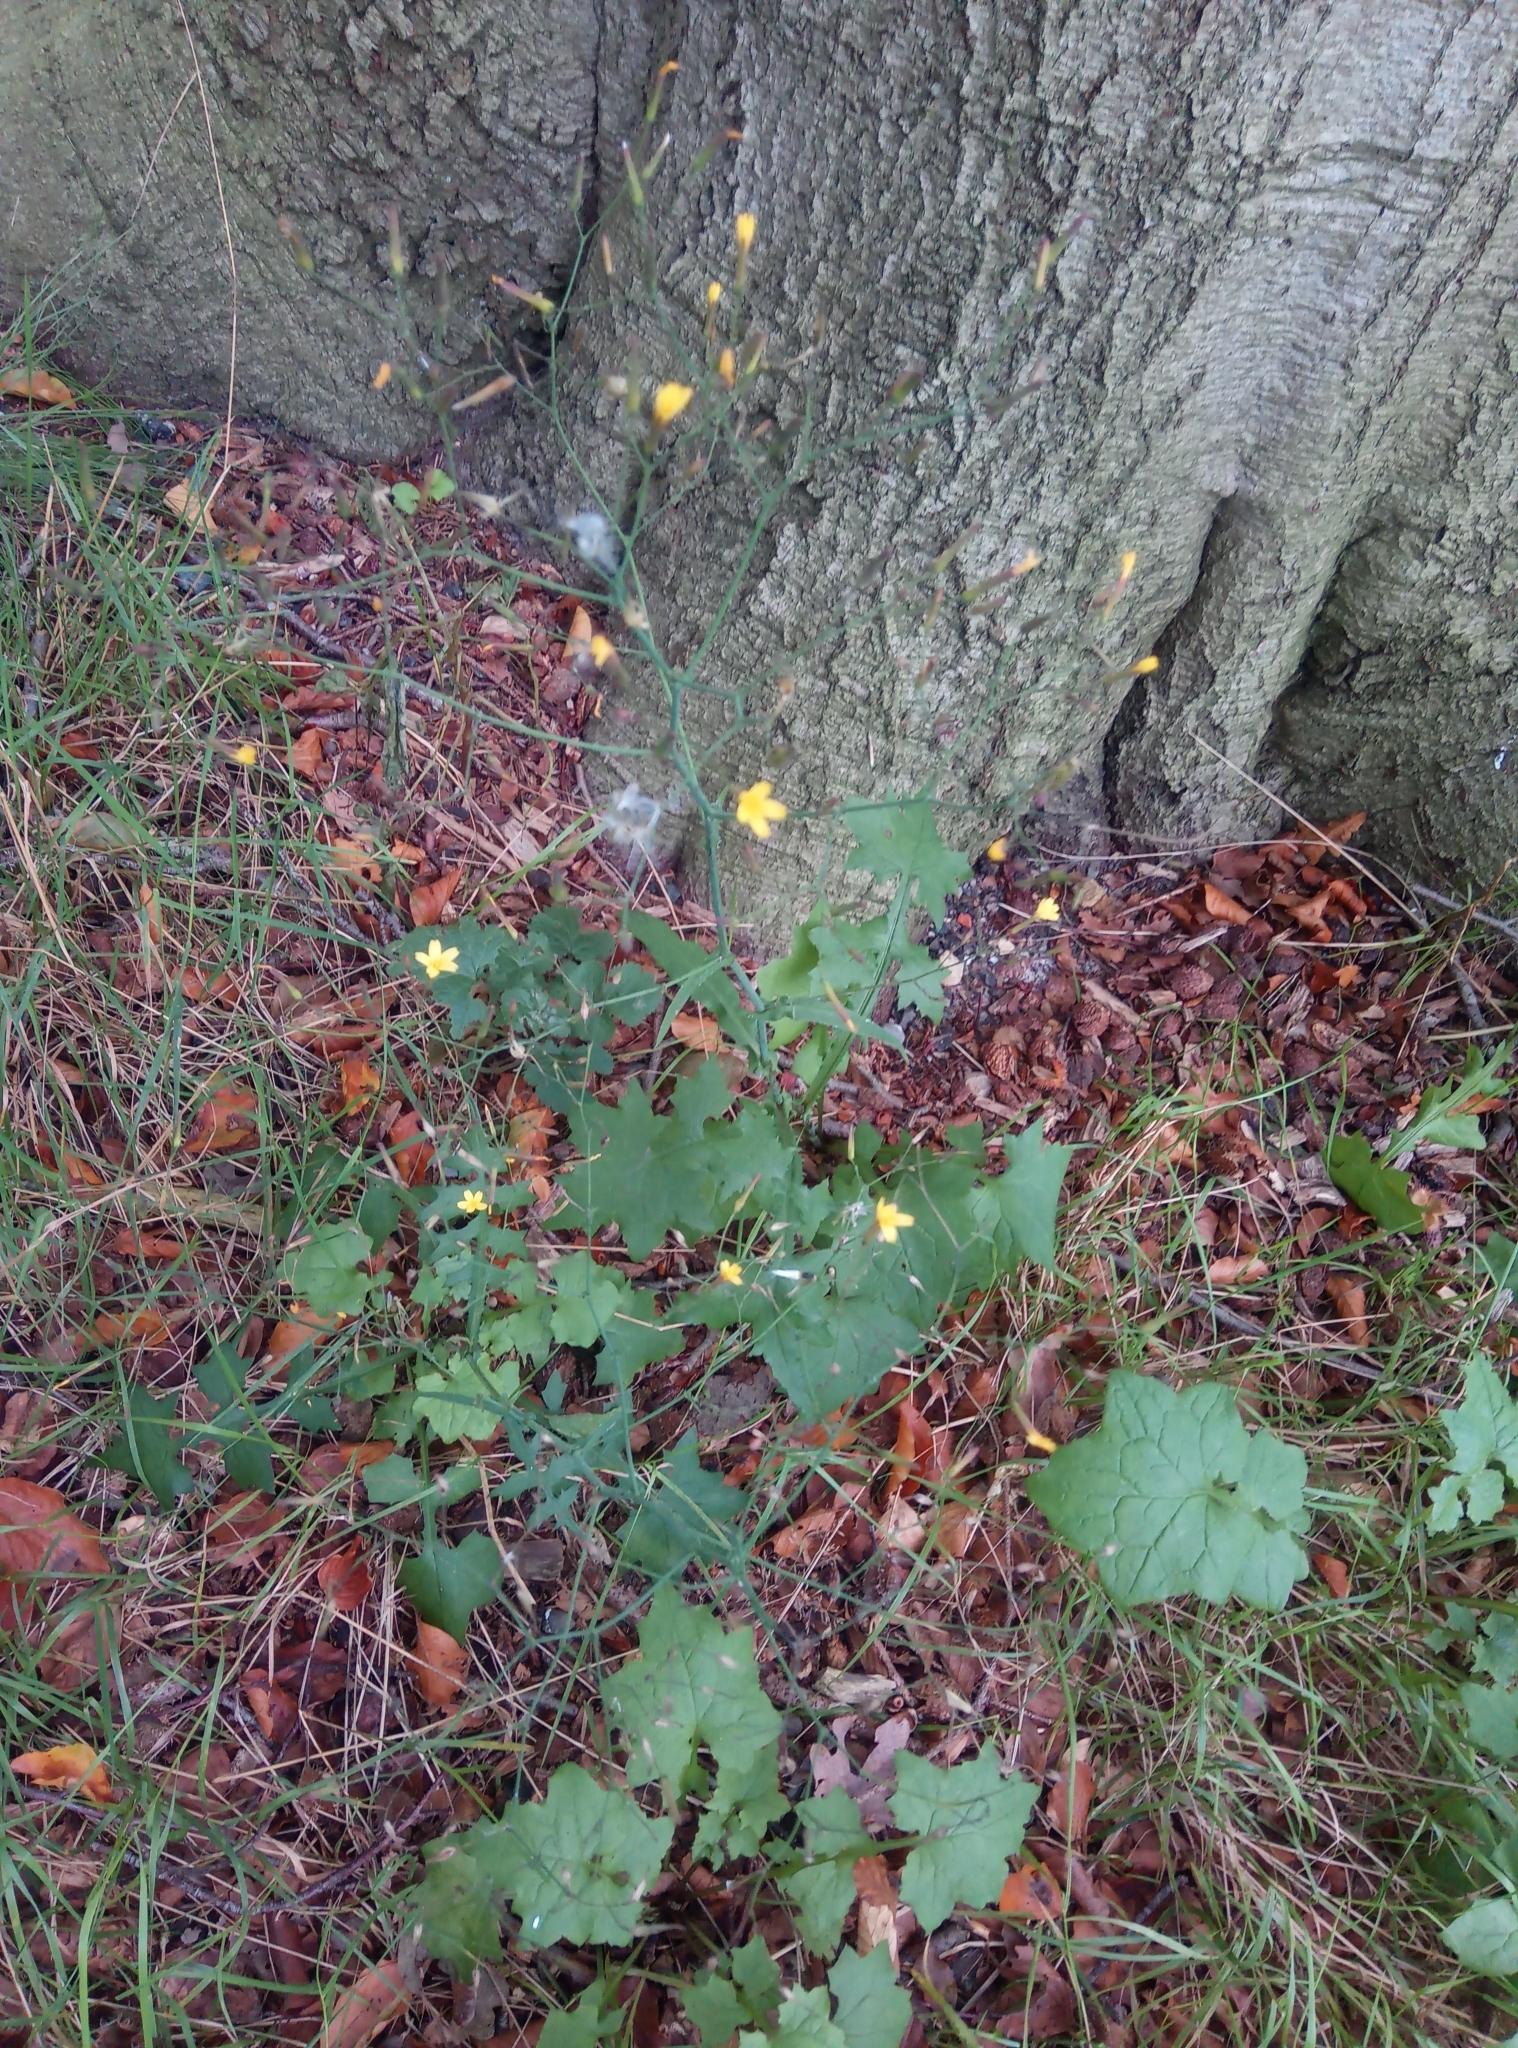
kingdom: Plantae
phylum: Tracheophyta
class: Magnoliopsida
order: Asterales
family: Asteraceae
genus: Mycelis
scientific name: Mycelis muralis
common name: Wall lettuce
